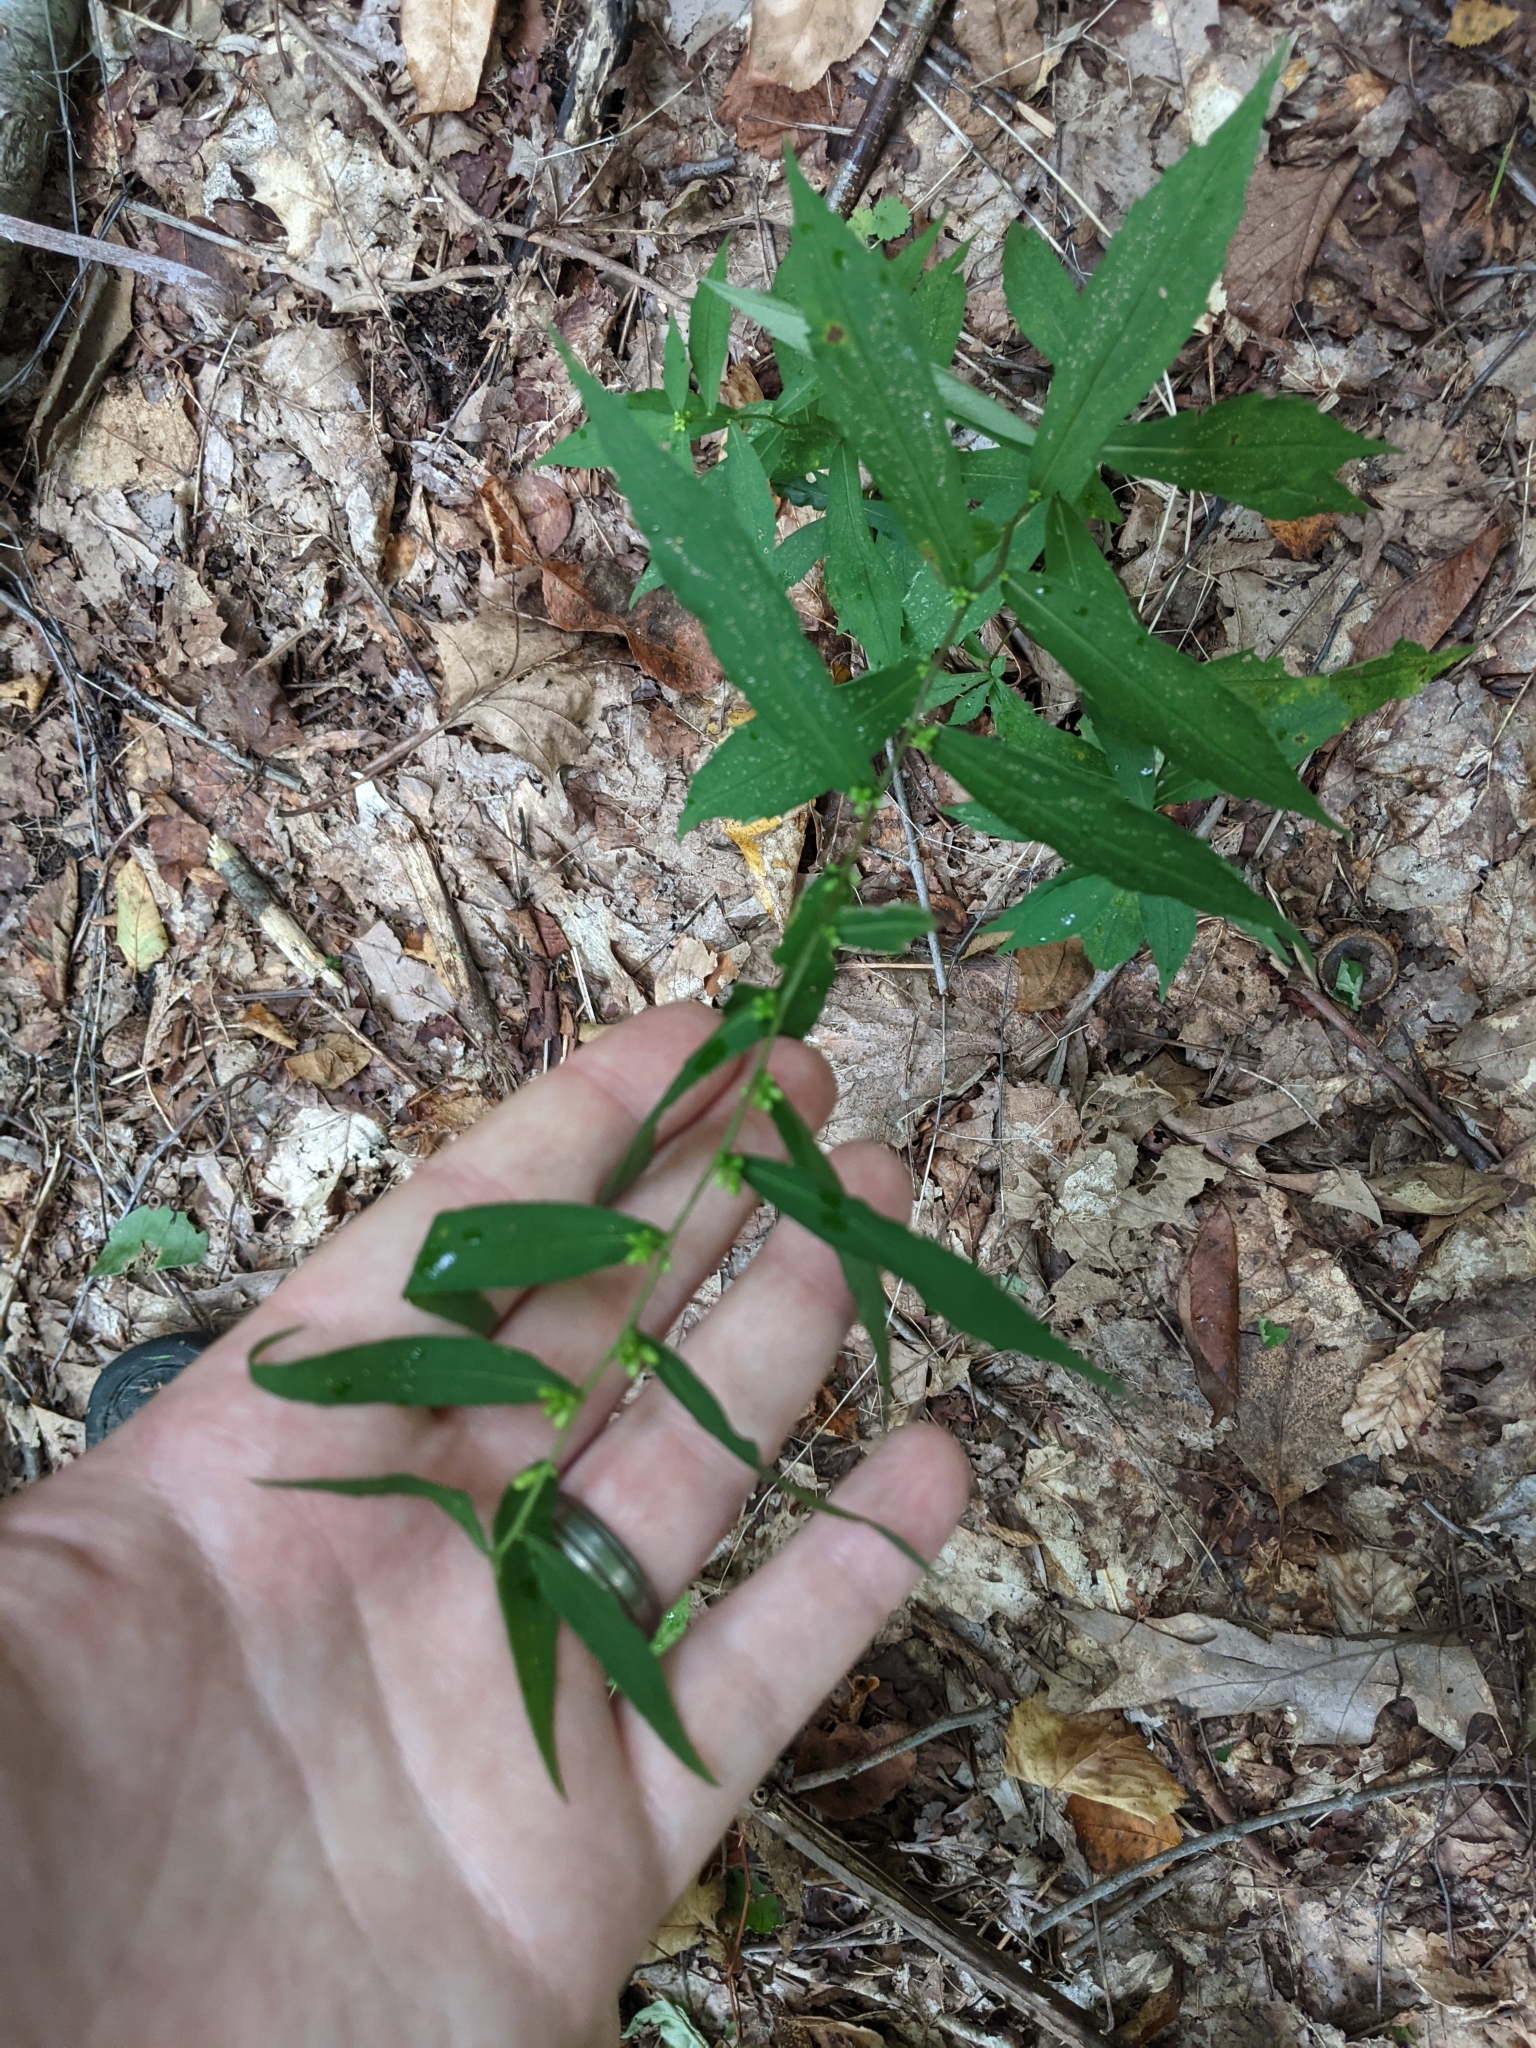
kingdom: Plantae
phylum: Tracheophyta
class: Magnoliopsida
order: Asterales
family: Asteraceae
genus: Solidago
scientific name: Solidago caesia
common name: Woodland goldenrod
